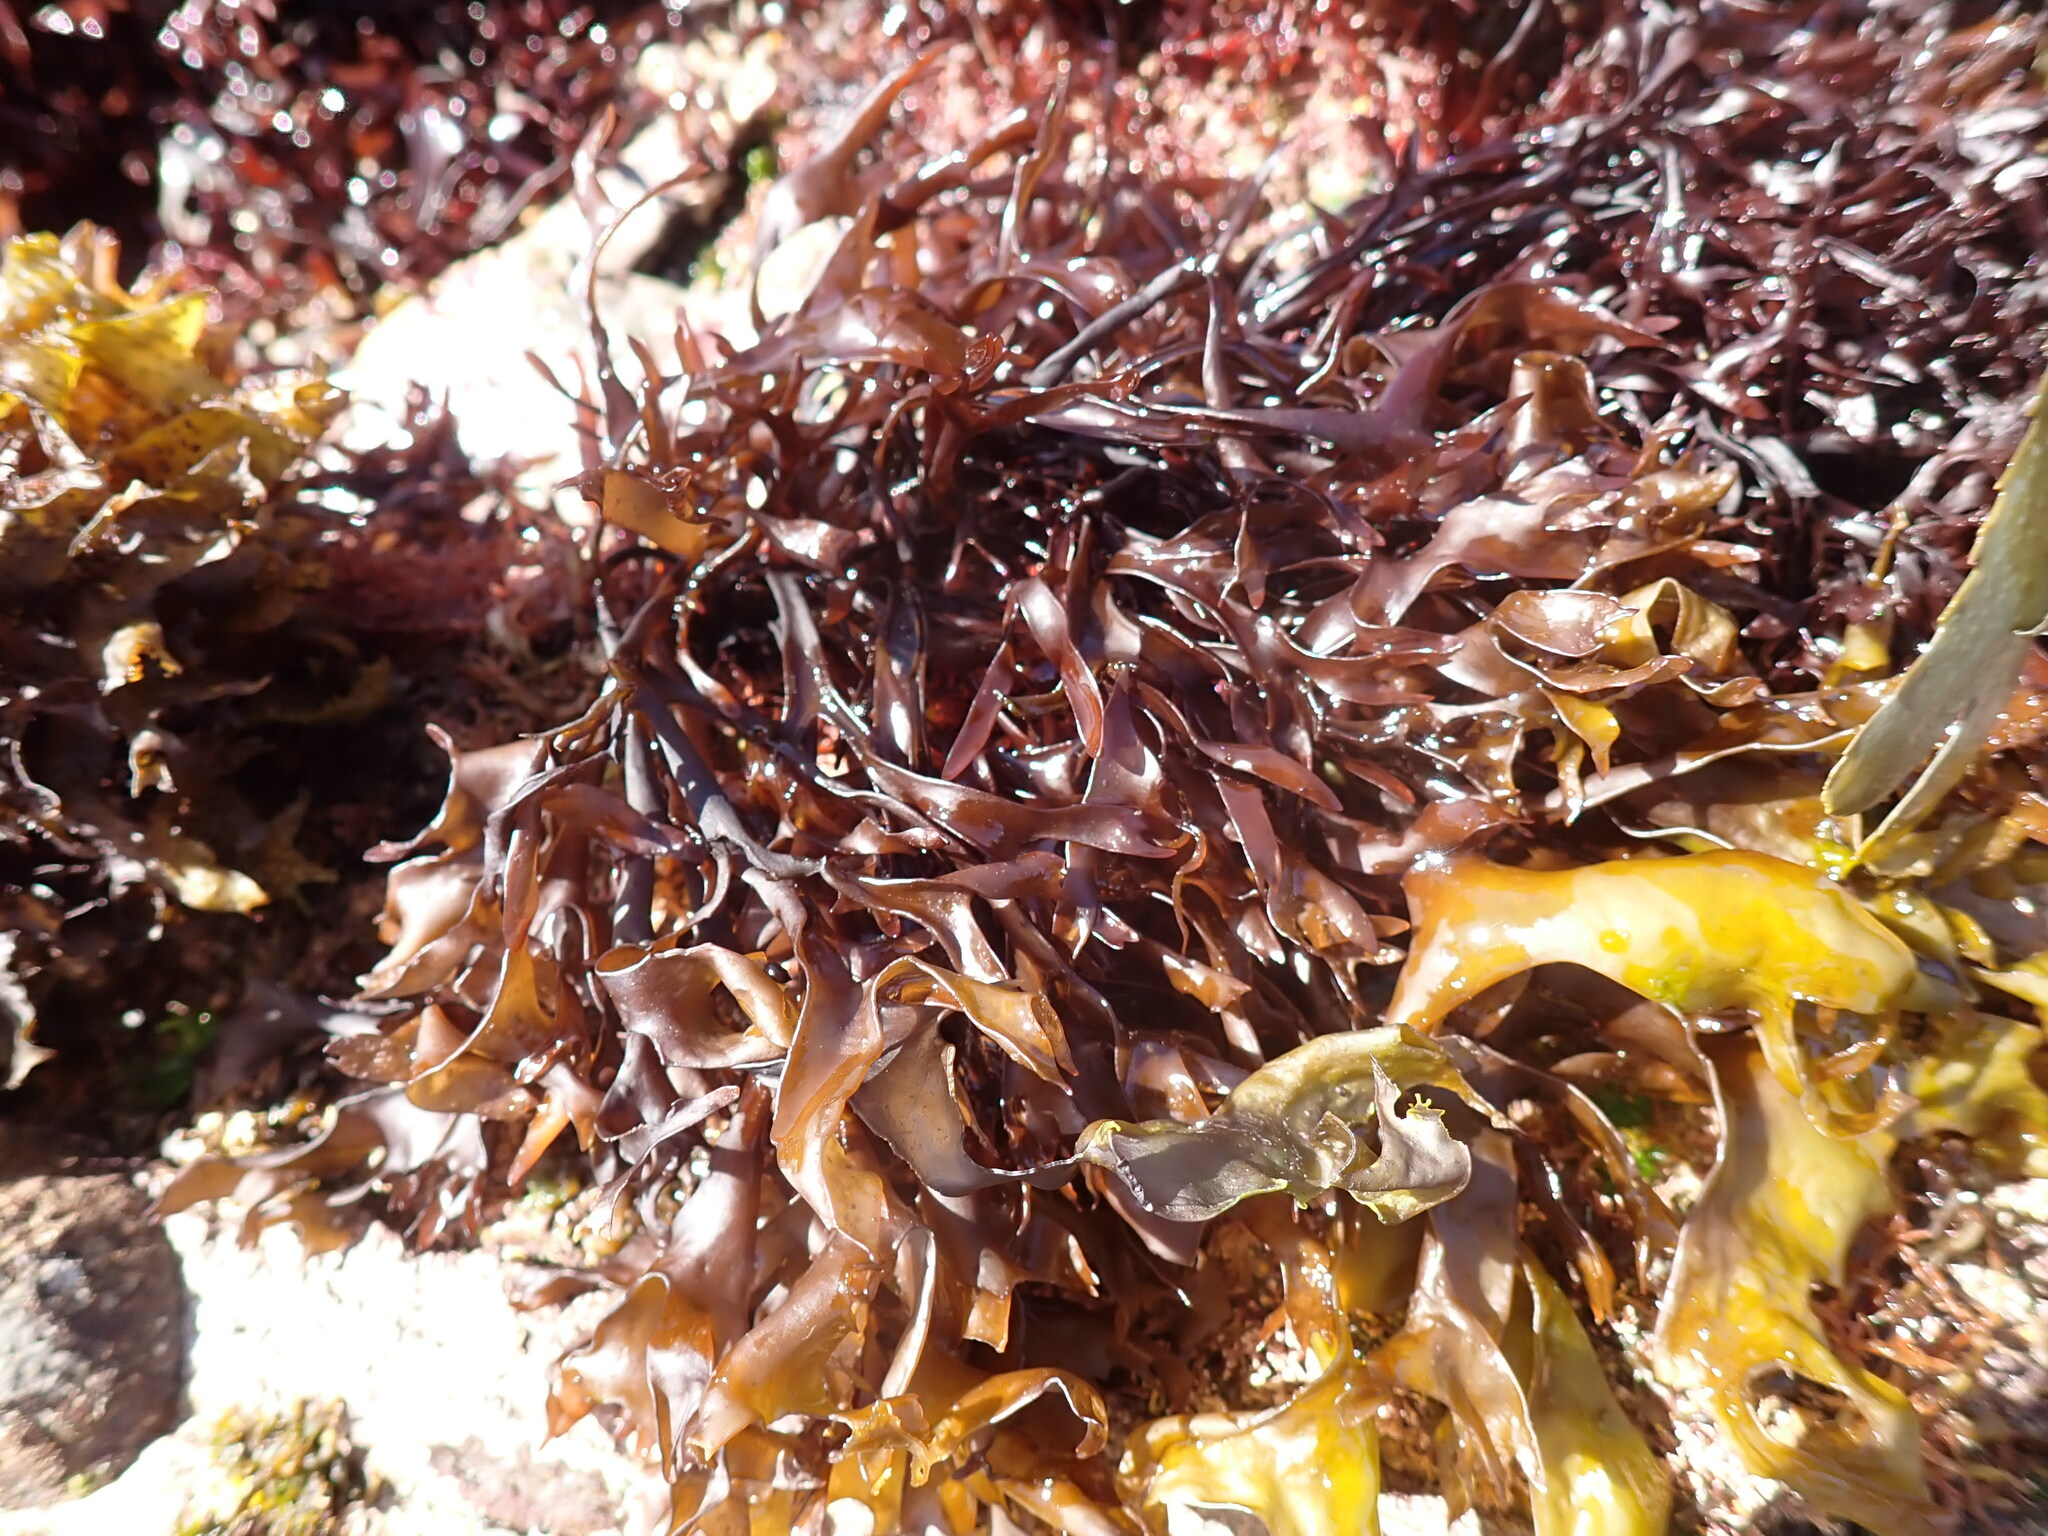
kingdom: Plantae
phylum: Rhodophyta
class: Florideophyceae
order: Gigartinales
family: Gigartinaceae
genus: Chondrus
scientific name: Chondrus crispus
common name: Carrageen
